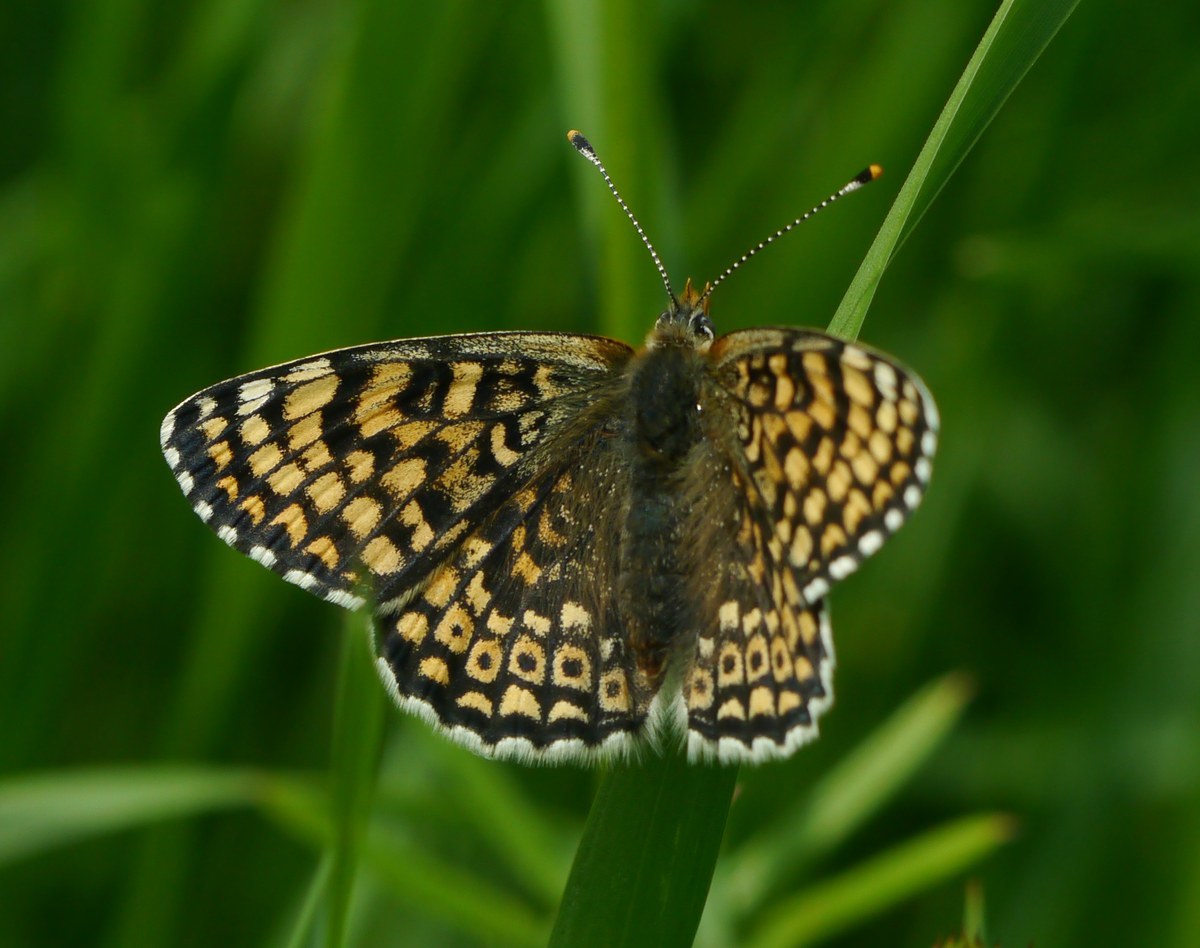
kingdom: Animalia
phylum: Arthropoda
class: Insecta
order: Lepidoptera
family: Nymphalidae
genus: Melitaea
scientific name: Melitaea cinxia
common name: Glanville fritillary
